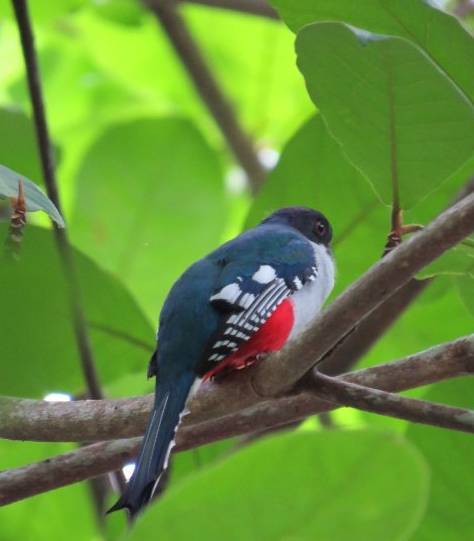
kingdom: Animalia
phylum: Chordata
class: Aves
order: Trogoniformes
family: Trogonidae
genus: Priotelus
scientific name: Priotelus temnurus
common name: Cuban trogon
